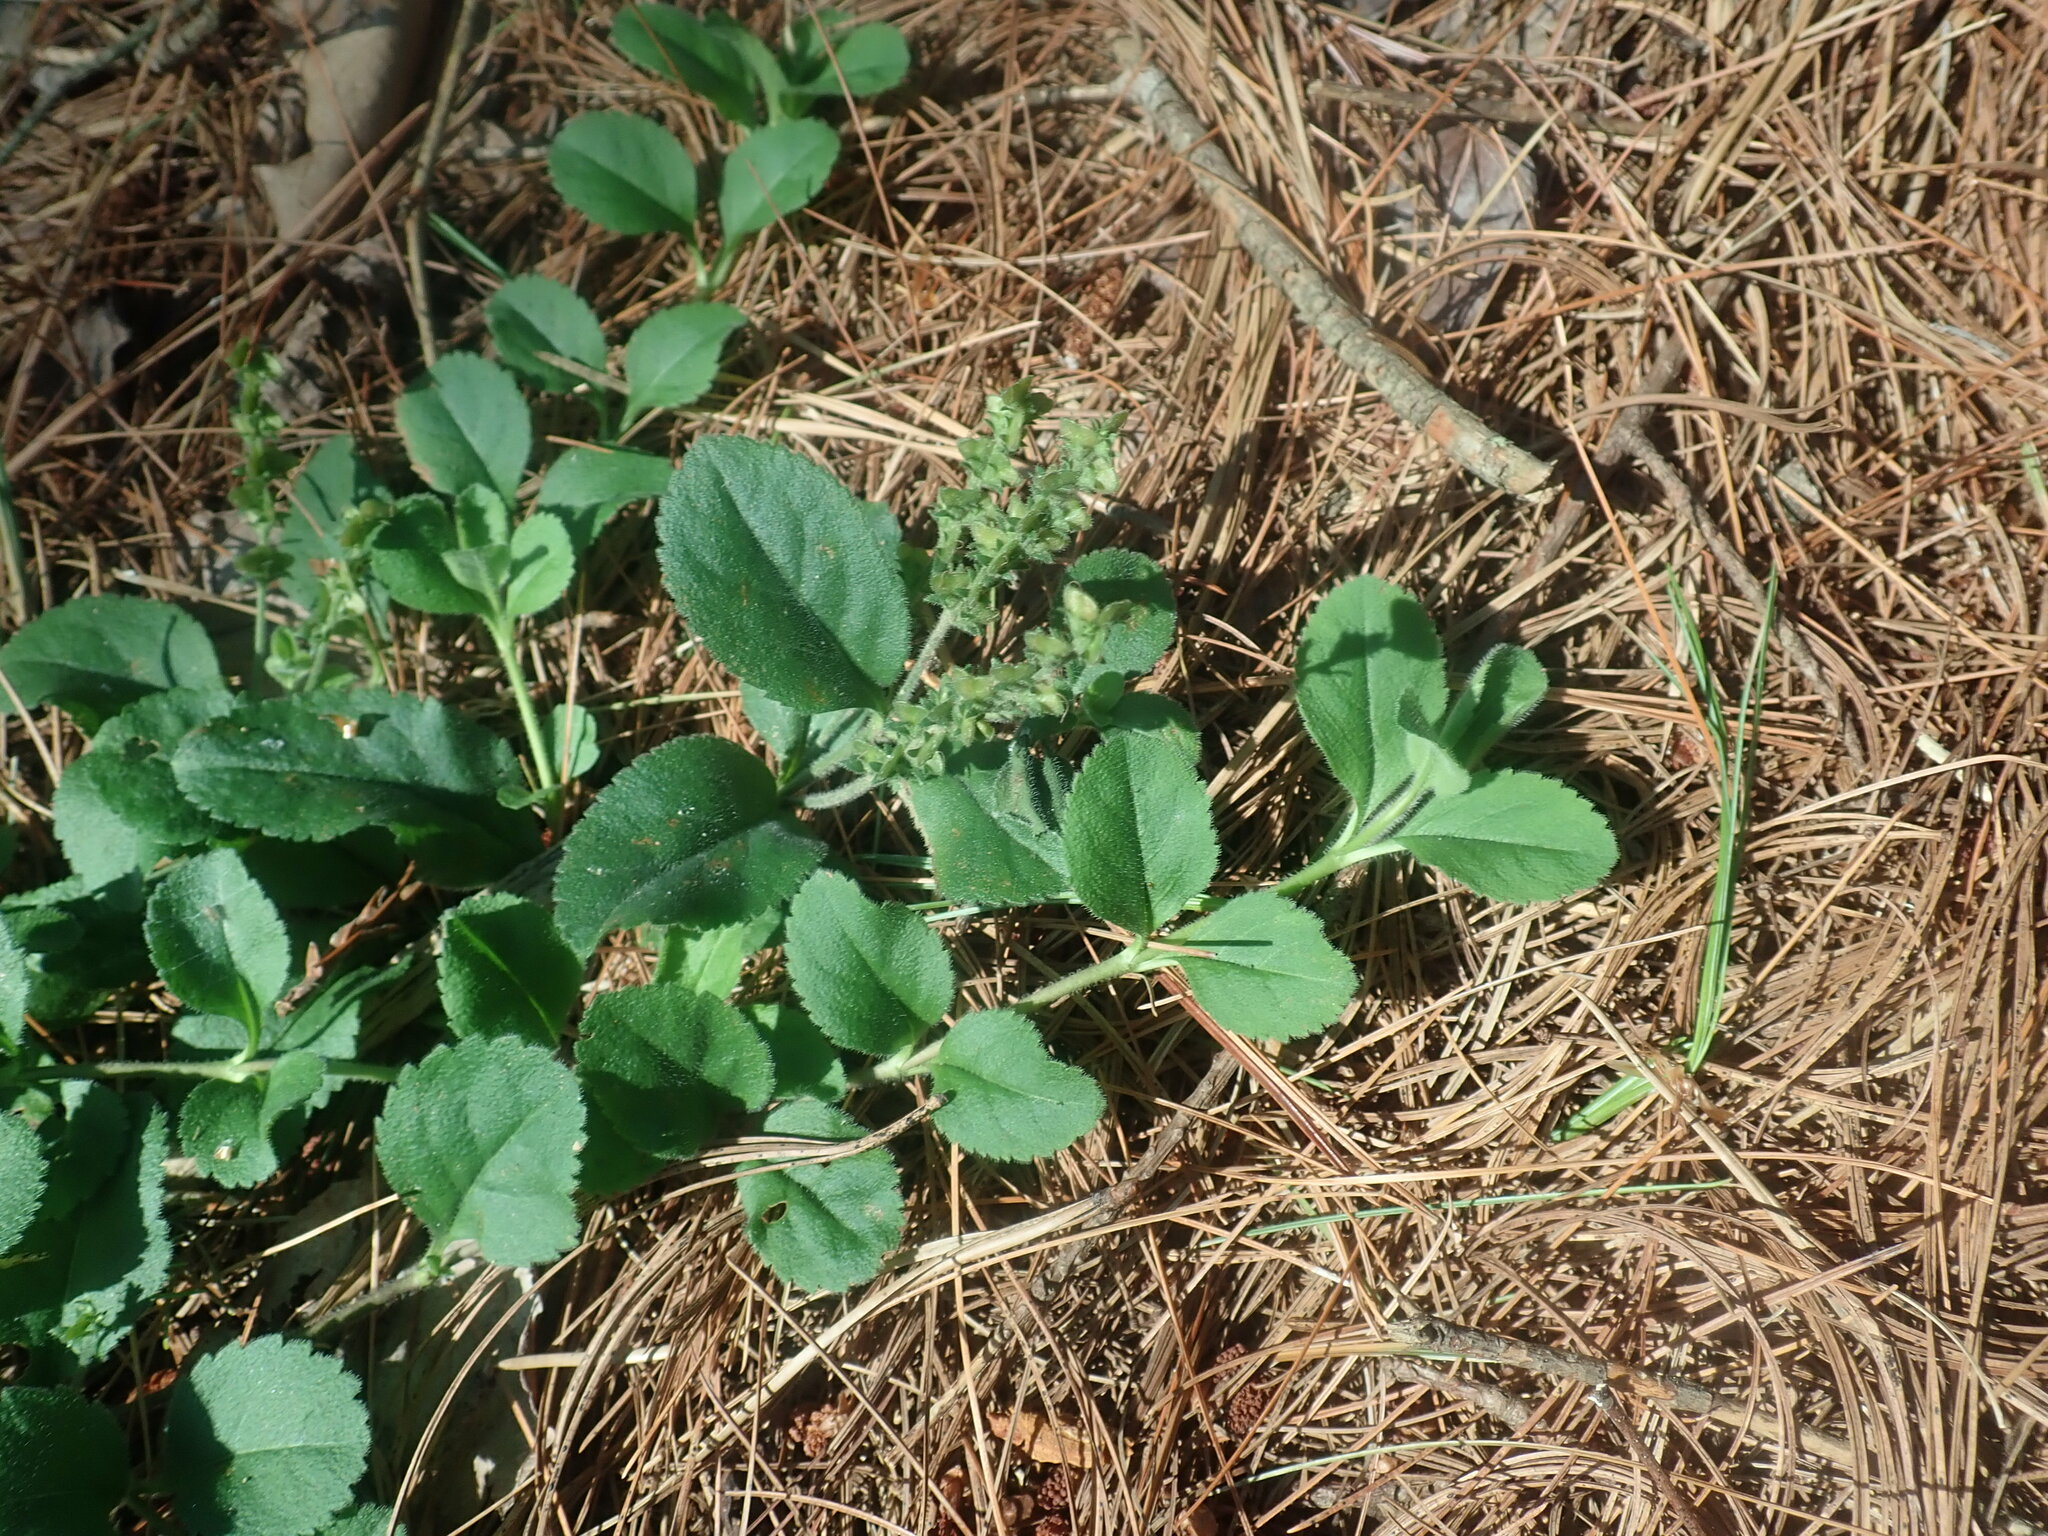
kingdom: Plantae
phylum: Tracheophyta
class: Magnoliopsida
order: Lamiales
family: Plantaginaceae
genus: Veronica
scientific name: Veronica officinalis
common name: Common speedwell
